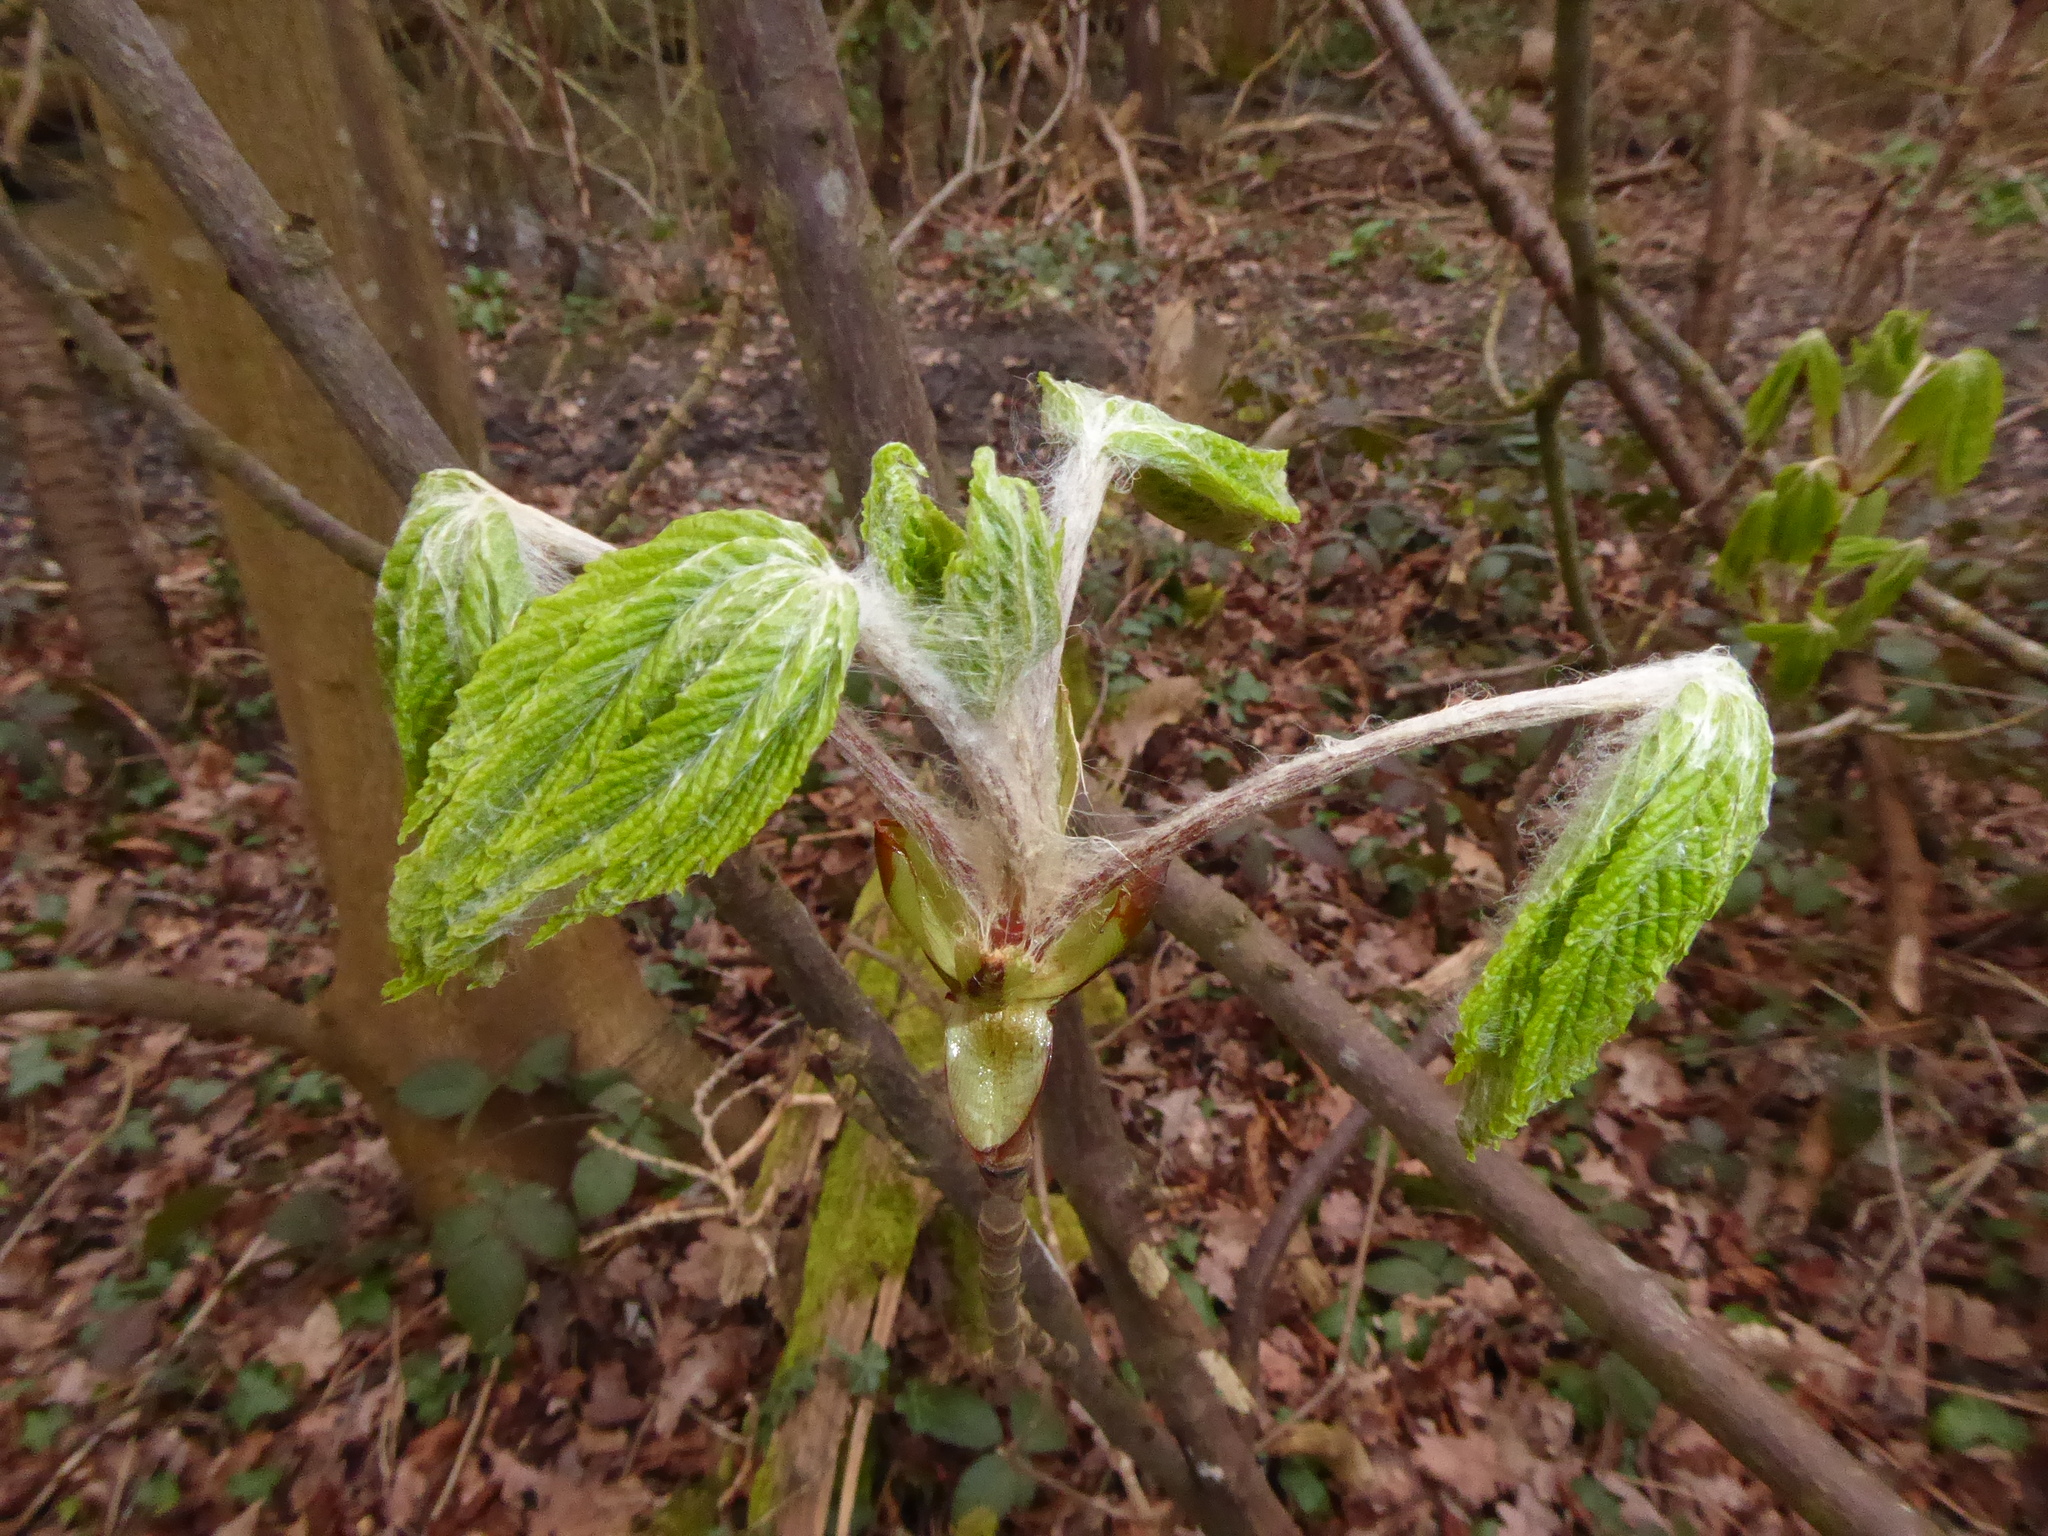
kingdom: Plantae
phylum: Tracheophyta
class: Magnoliopsida
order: Sapindales
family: Sapindaceae
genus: Aesculus
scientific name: Aesculus hippocastanum
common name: Horse-chestnut
